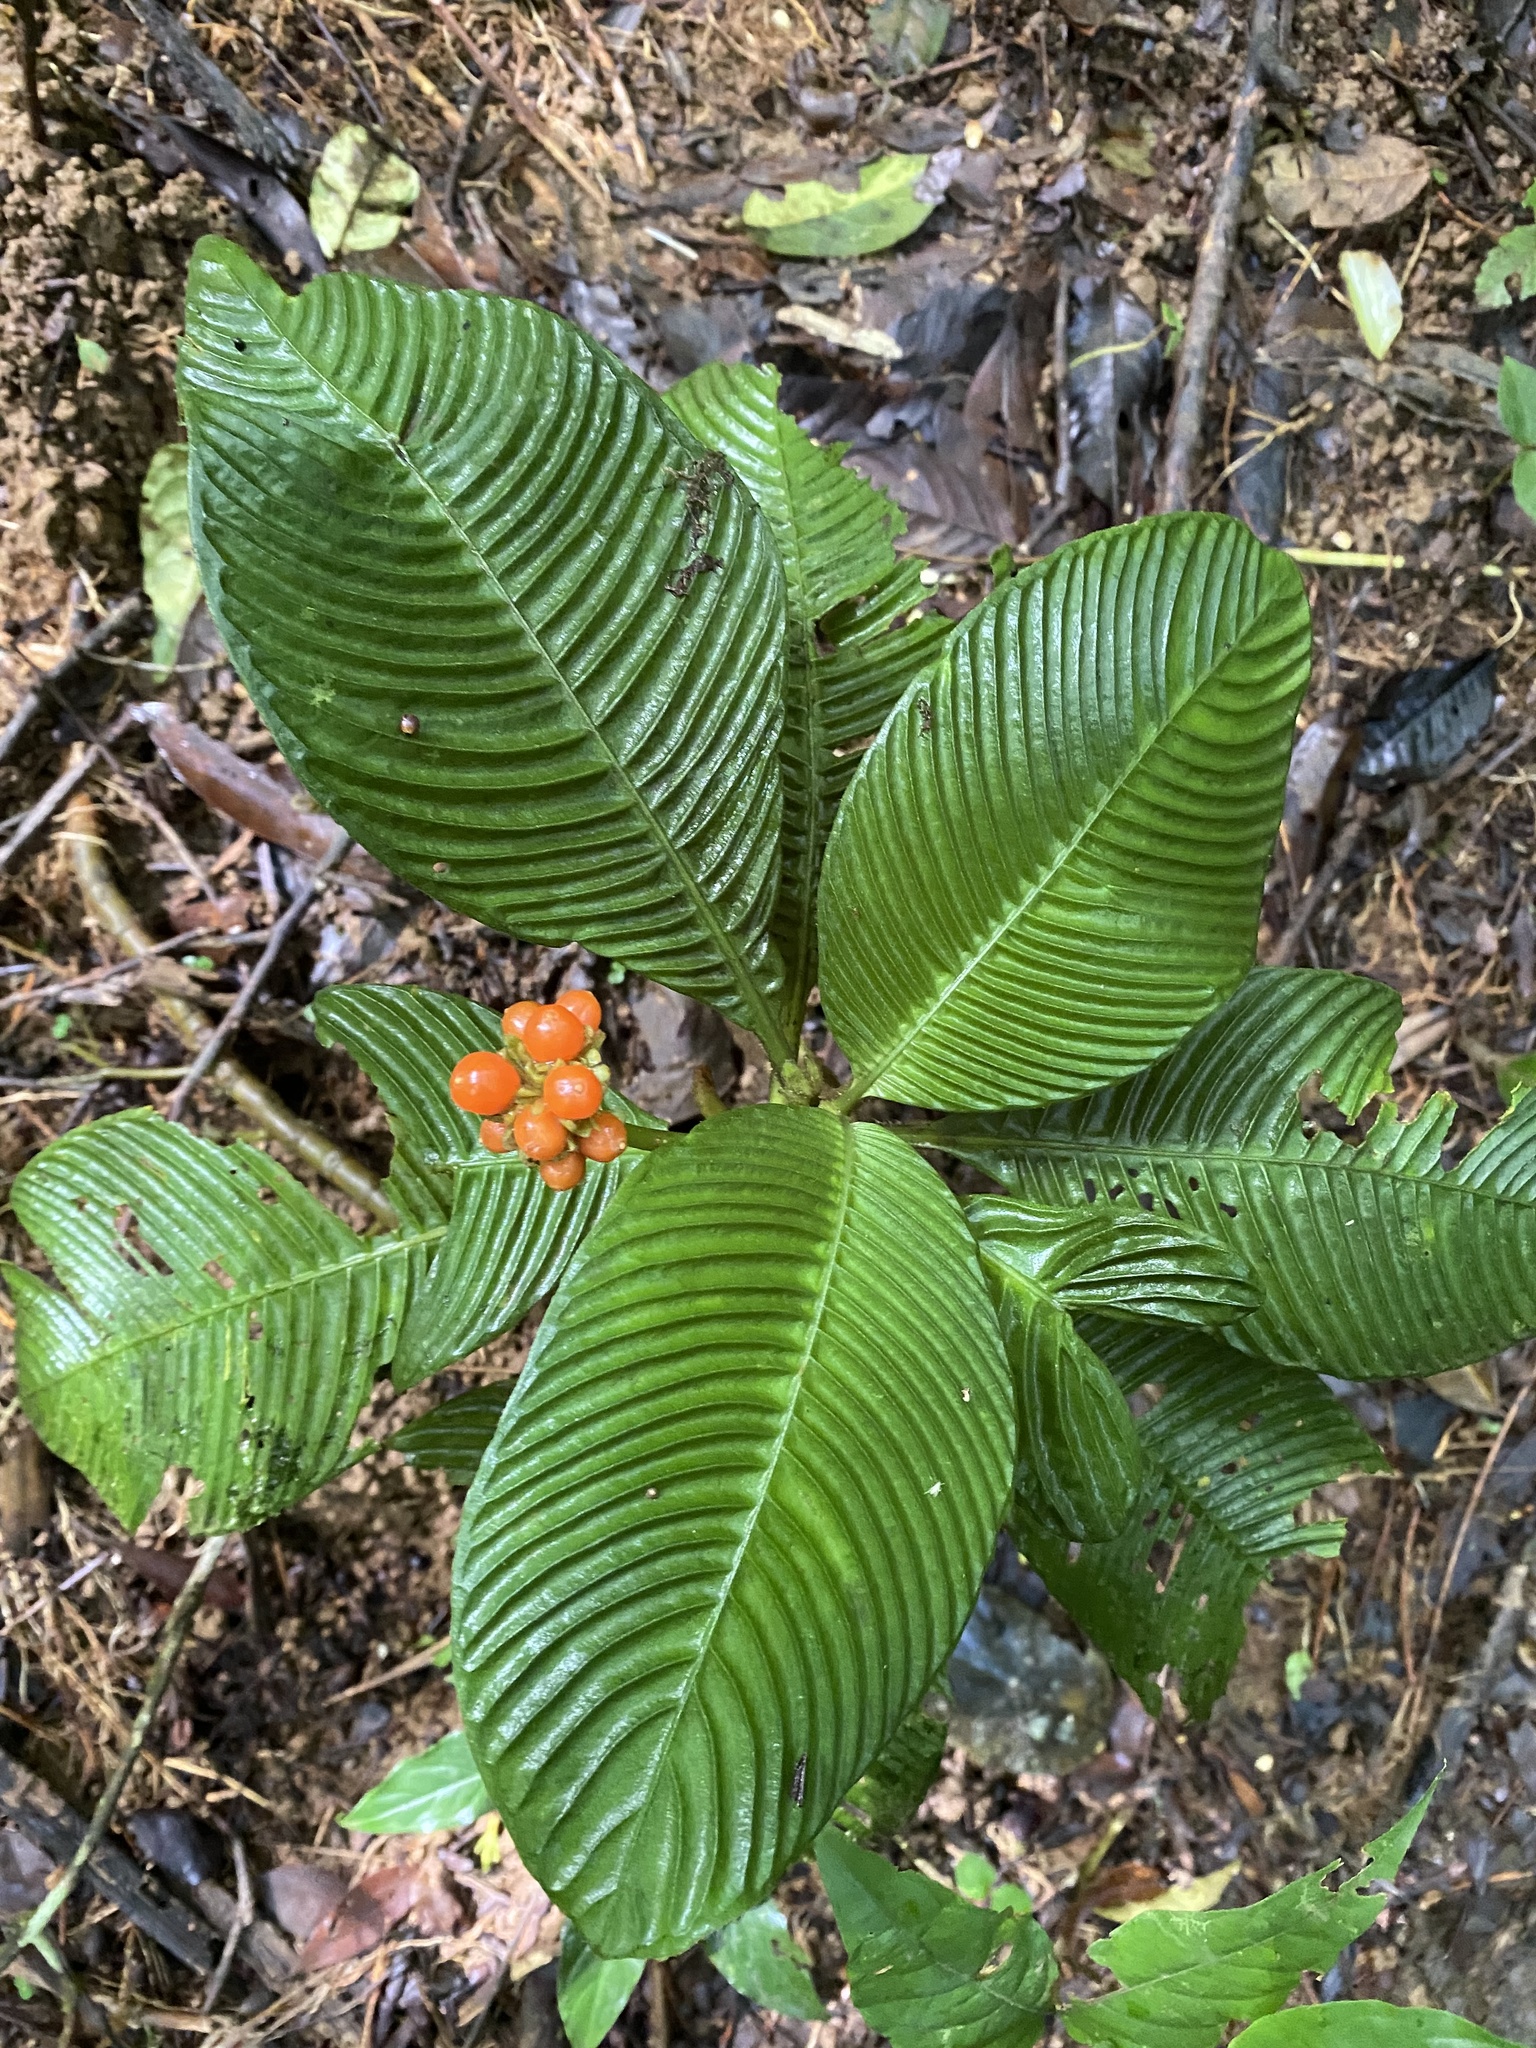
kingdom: Plantae
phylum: Tracheophyta
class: Magnoliopsida
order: Gentianales
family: Rubiaceae
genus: Notopleura
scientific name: Notopleura polyphlebia
